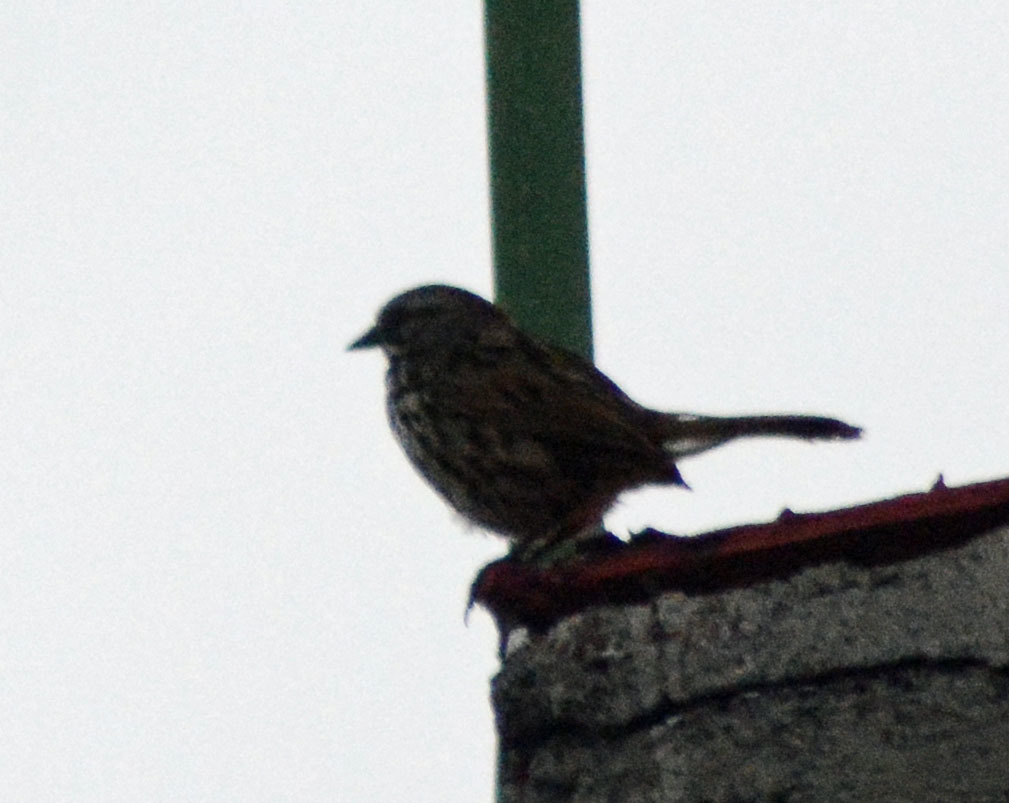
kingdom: Animalia
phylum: Chordata
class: Aves
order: Passeriformes
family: Passerellidae
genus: Melospiza
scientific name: Melospiza melodia
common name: Song sparrow
